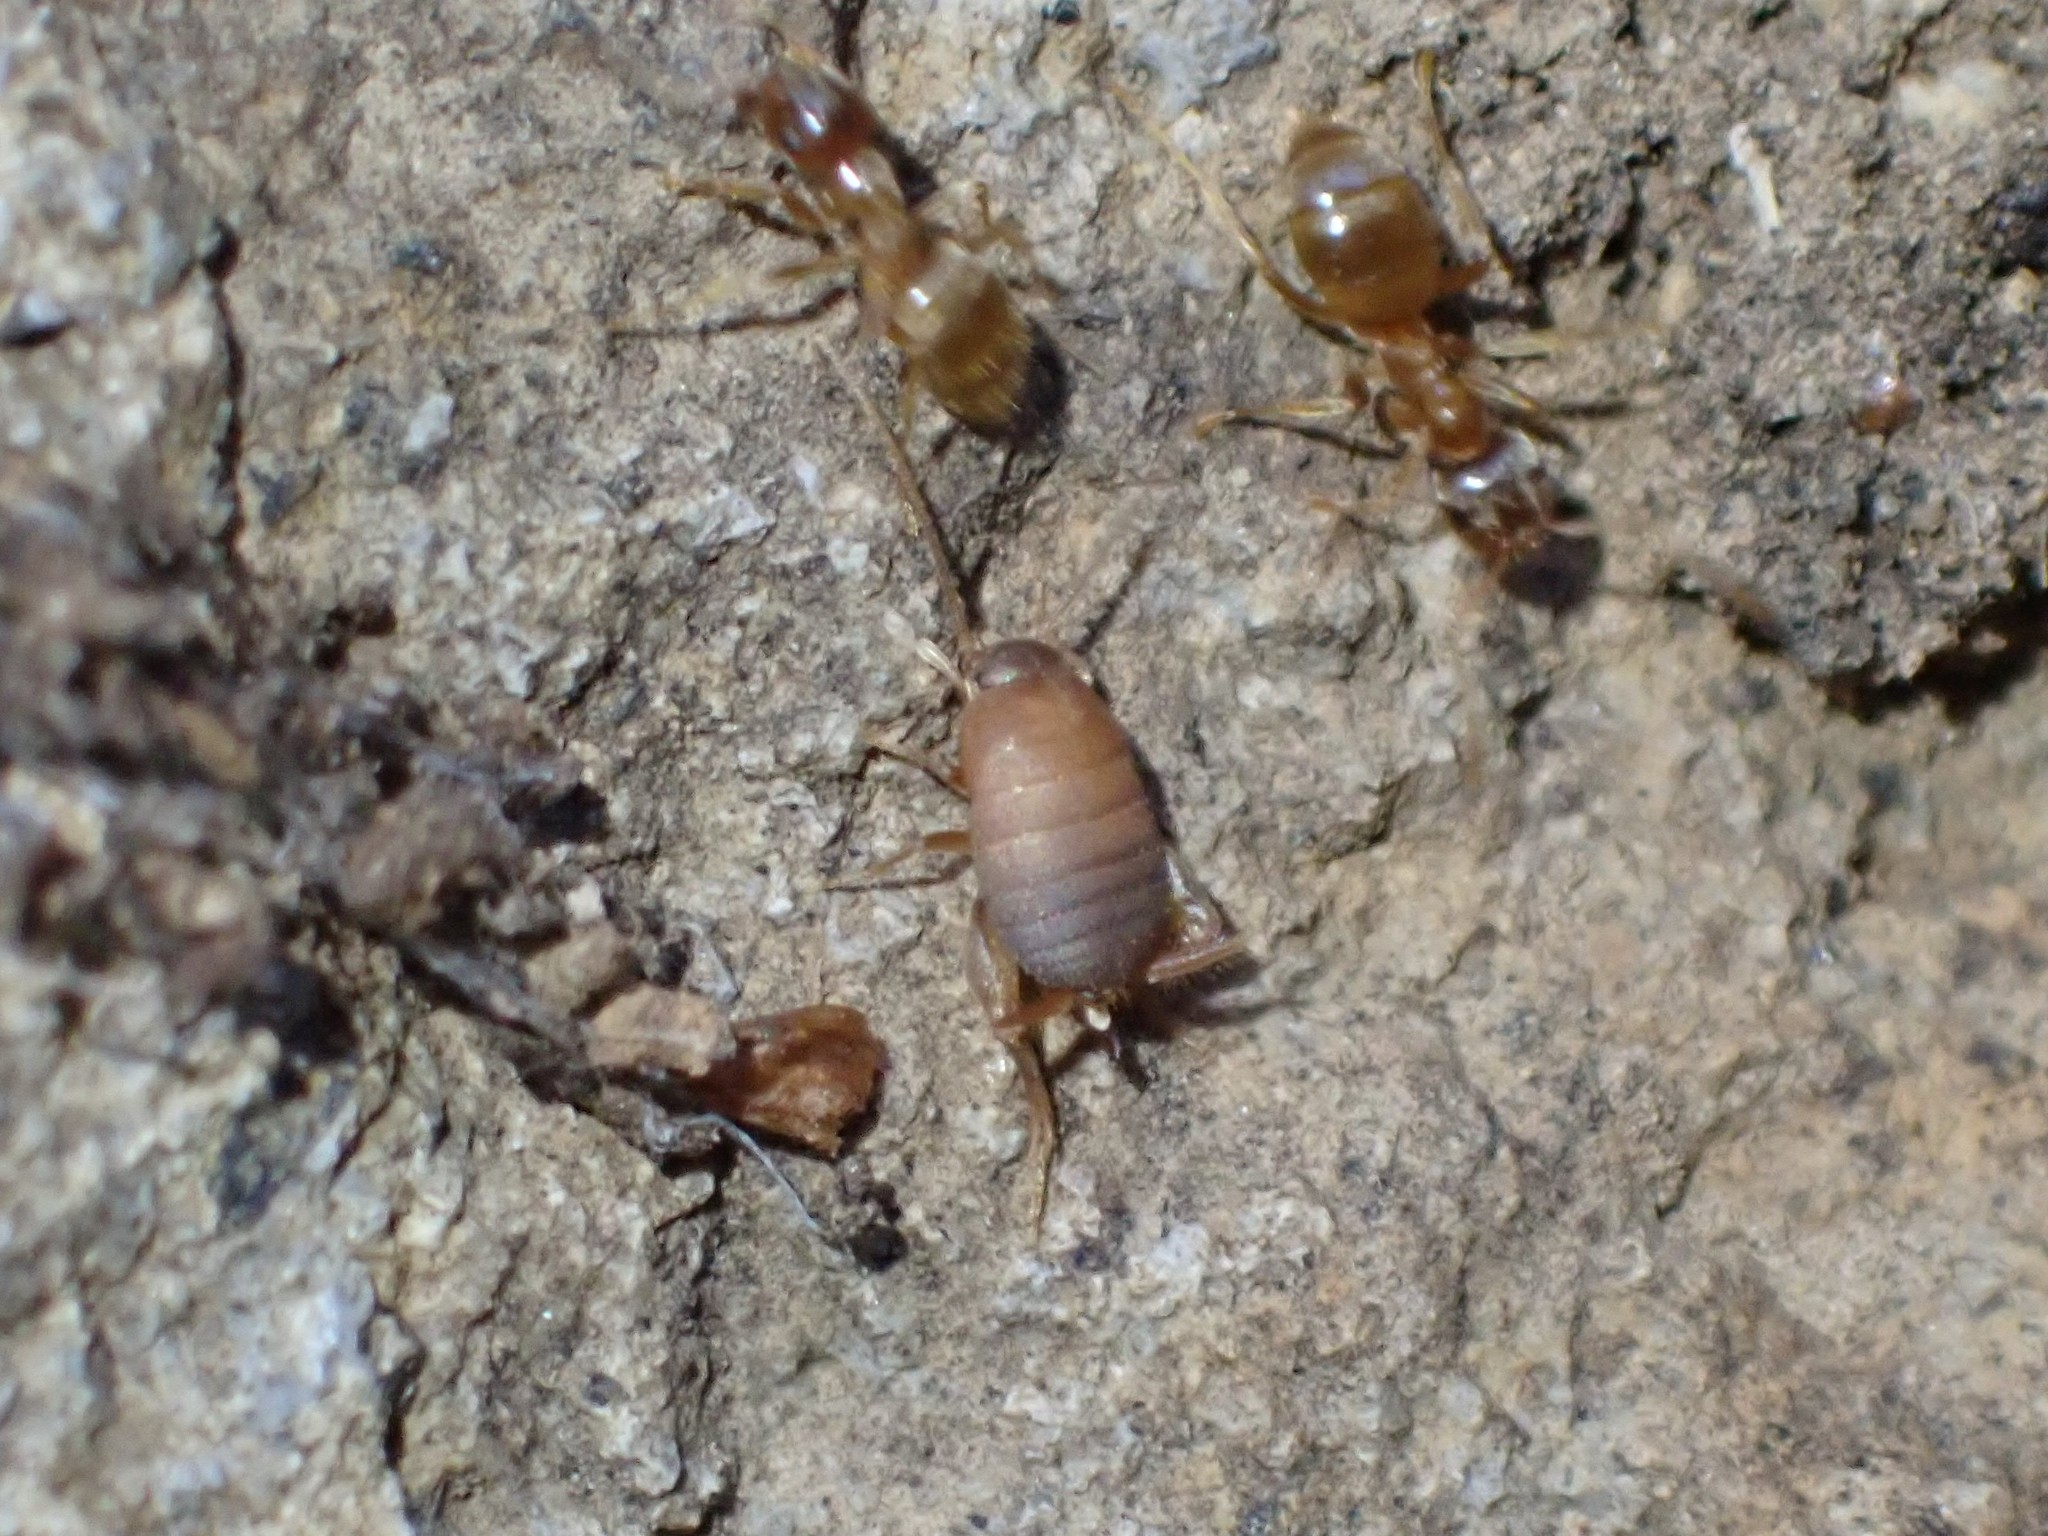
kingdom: Animalia
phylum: Arthropoda
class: Insecta
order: Orthoptera
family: Myrmecophilidae
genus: Myrmecophilus
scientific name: Myrmecophilus oregonensis
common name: Oregon ant cricket
